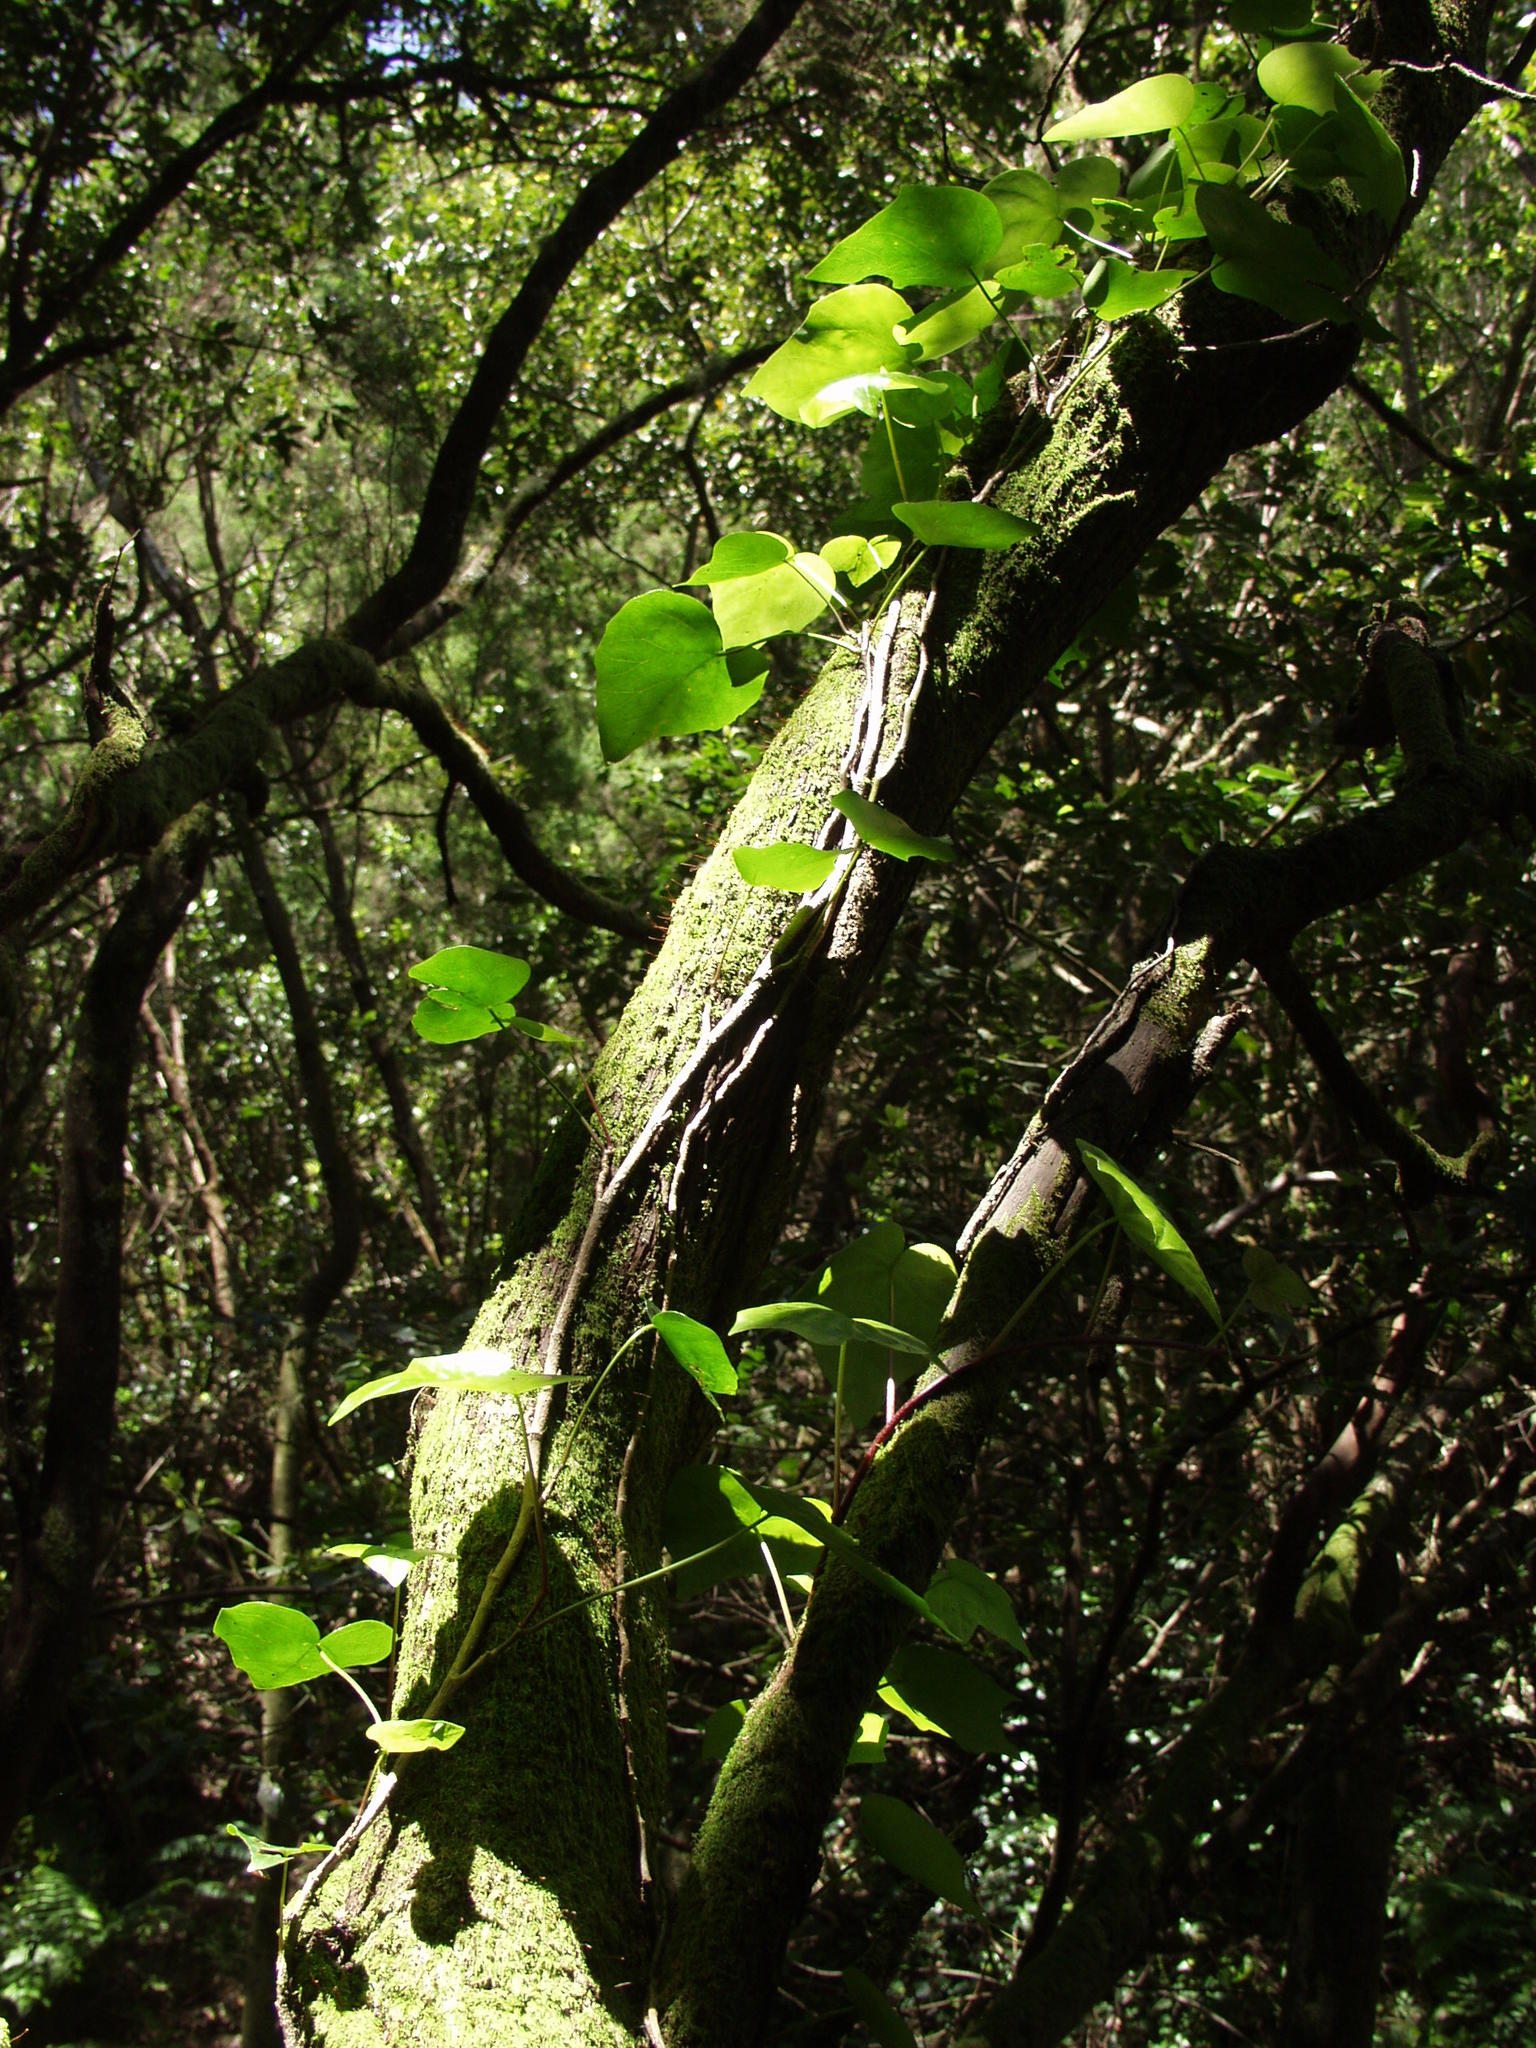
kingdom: Plantae
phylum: Tracheophyta
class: Magnoliopsida
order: Apiales
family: Araliaceae
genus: Hedera
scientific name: Hedera canariensis
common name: Madeira ivy
